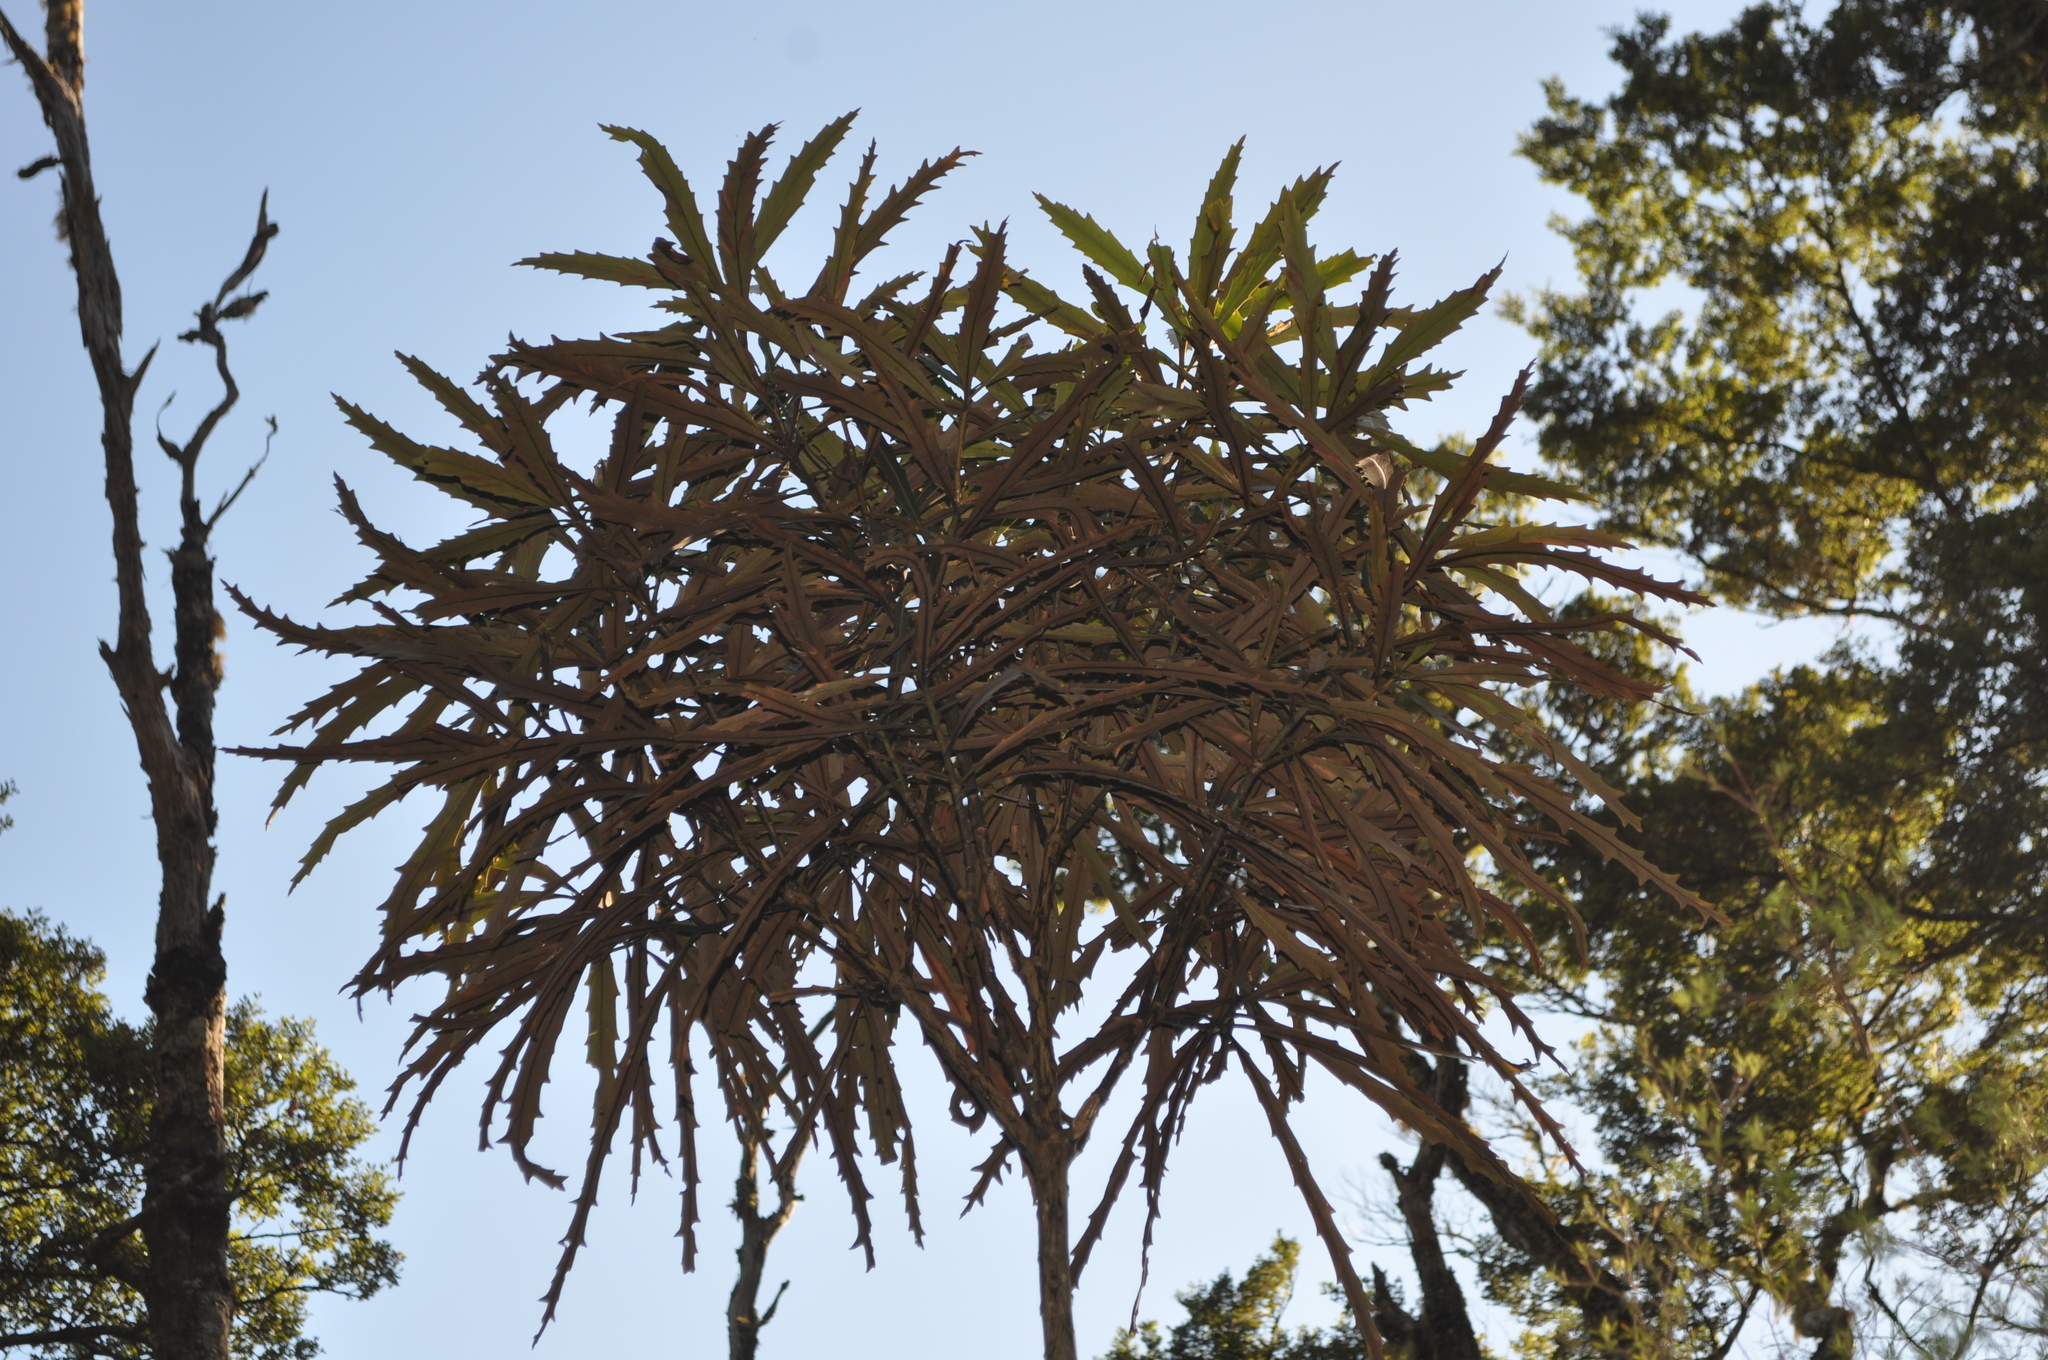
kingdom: Plantae
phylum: Tracheophyta
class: Magnoliopsida
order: Apiales
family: Araliaceae
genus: Pseudopanax
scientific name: Pseudopanax crassifolius
